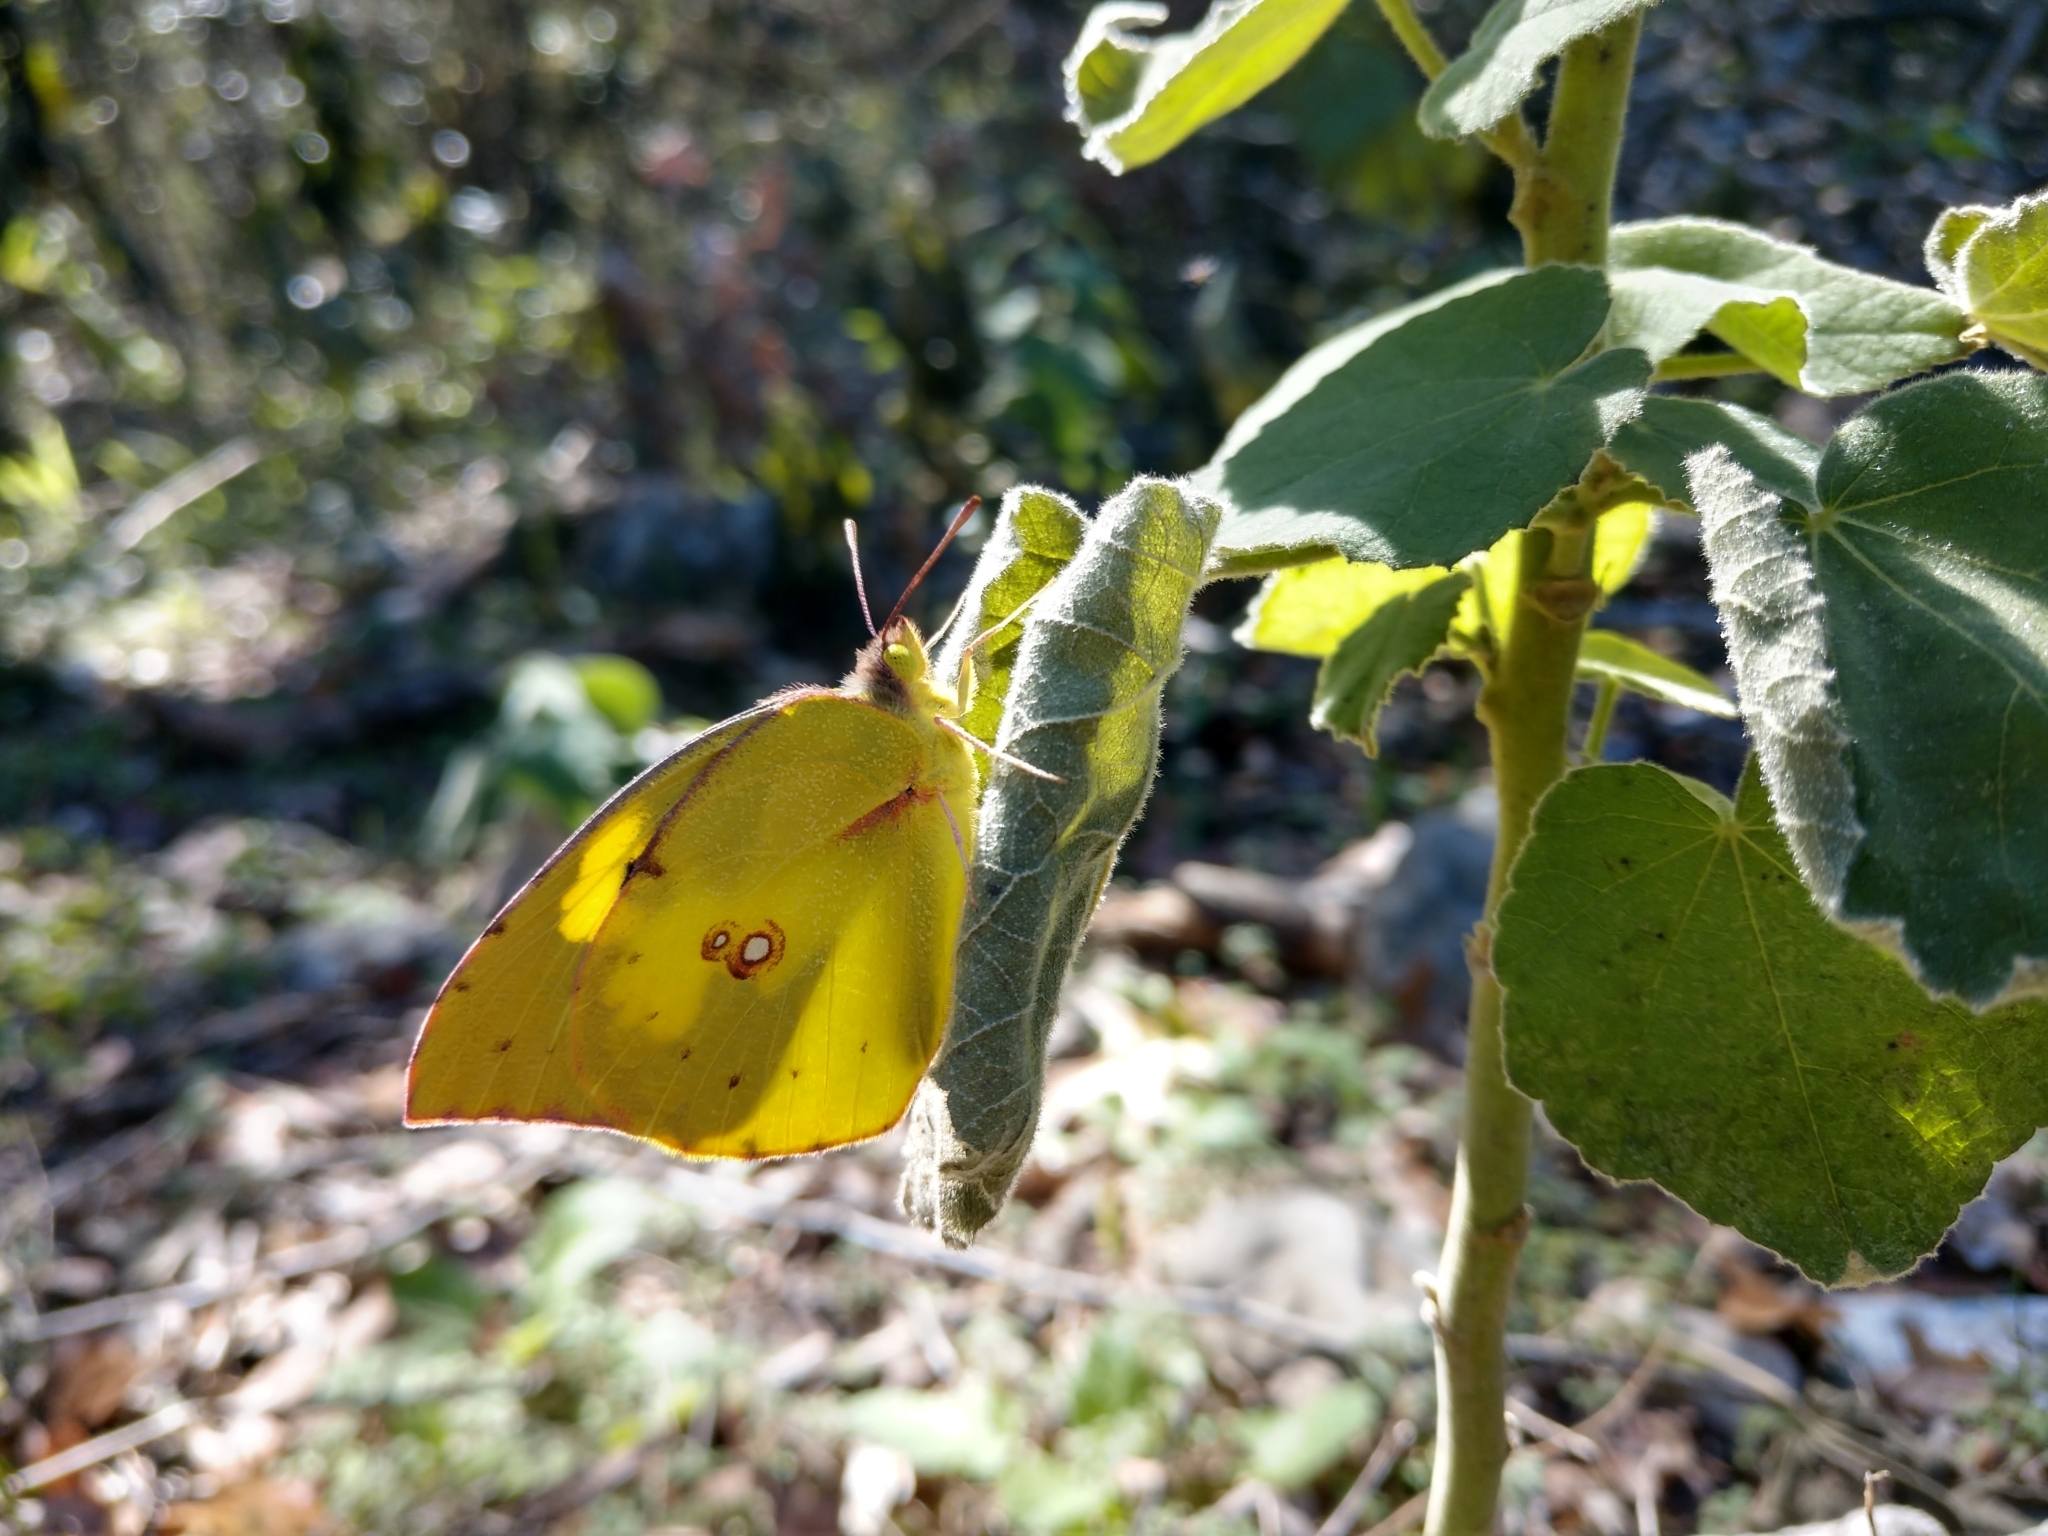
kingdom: Animalia
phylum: Arthropoda
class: Insecta
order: Lepidoptera
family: Pieridae
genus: Zerene
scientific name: Zerene cesonia
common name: Southern dogface
